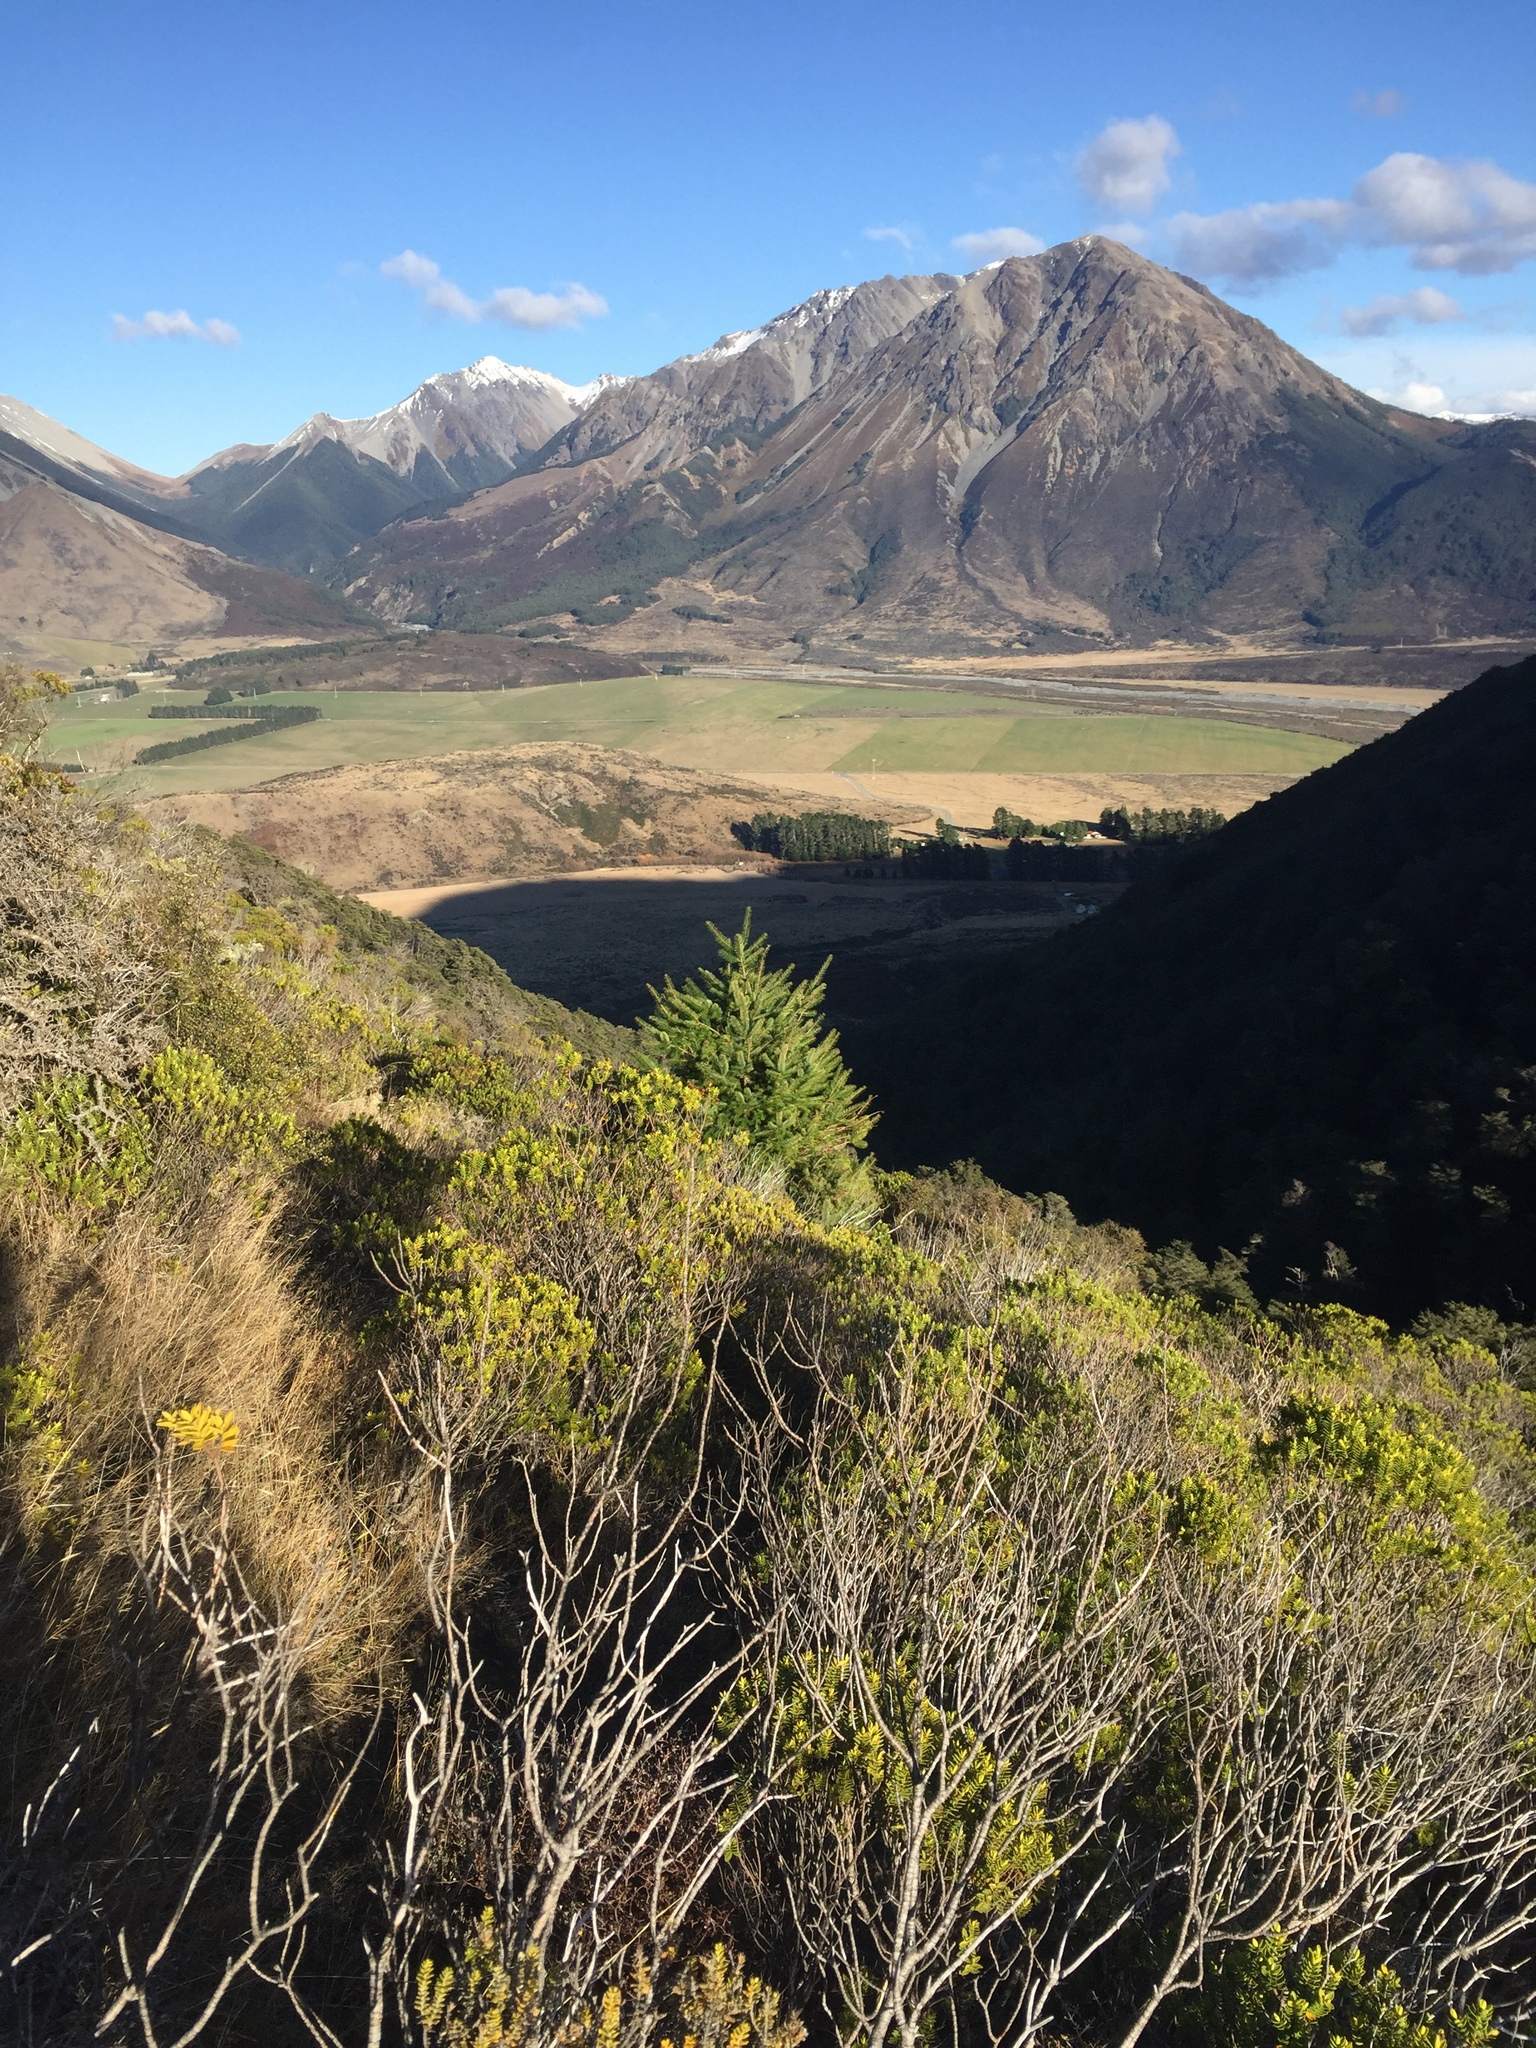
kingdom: Plantae
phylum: Tracheophyta
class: Pinopsida
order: Pinales
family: Pinaceae
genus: Pseudotsuga
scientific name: Pseudotsuga menziesii
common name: Douglas fir
